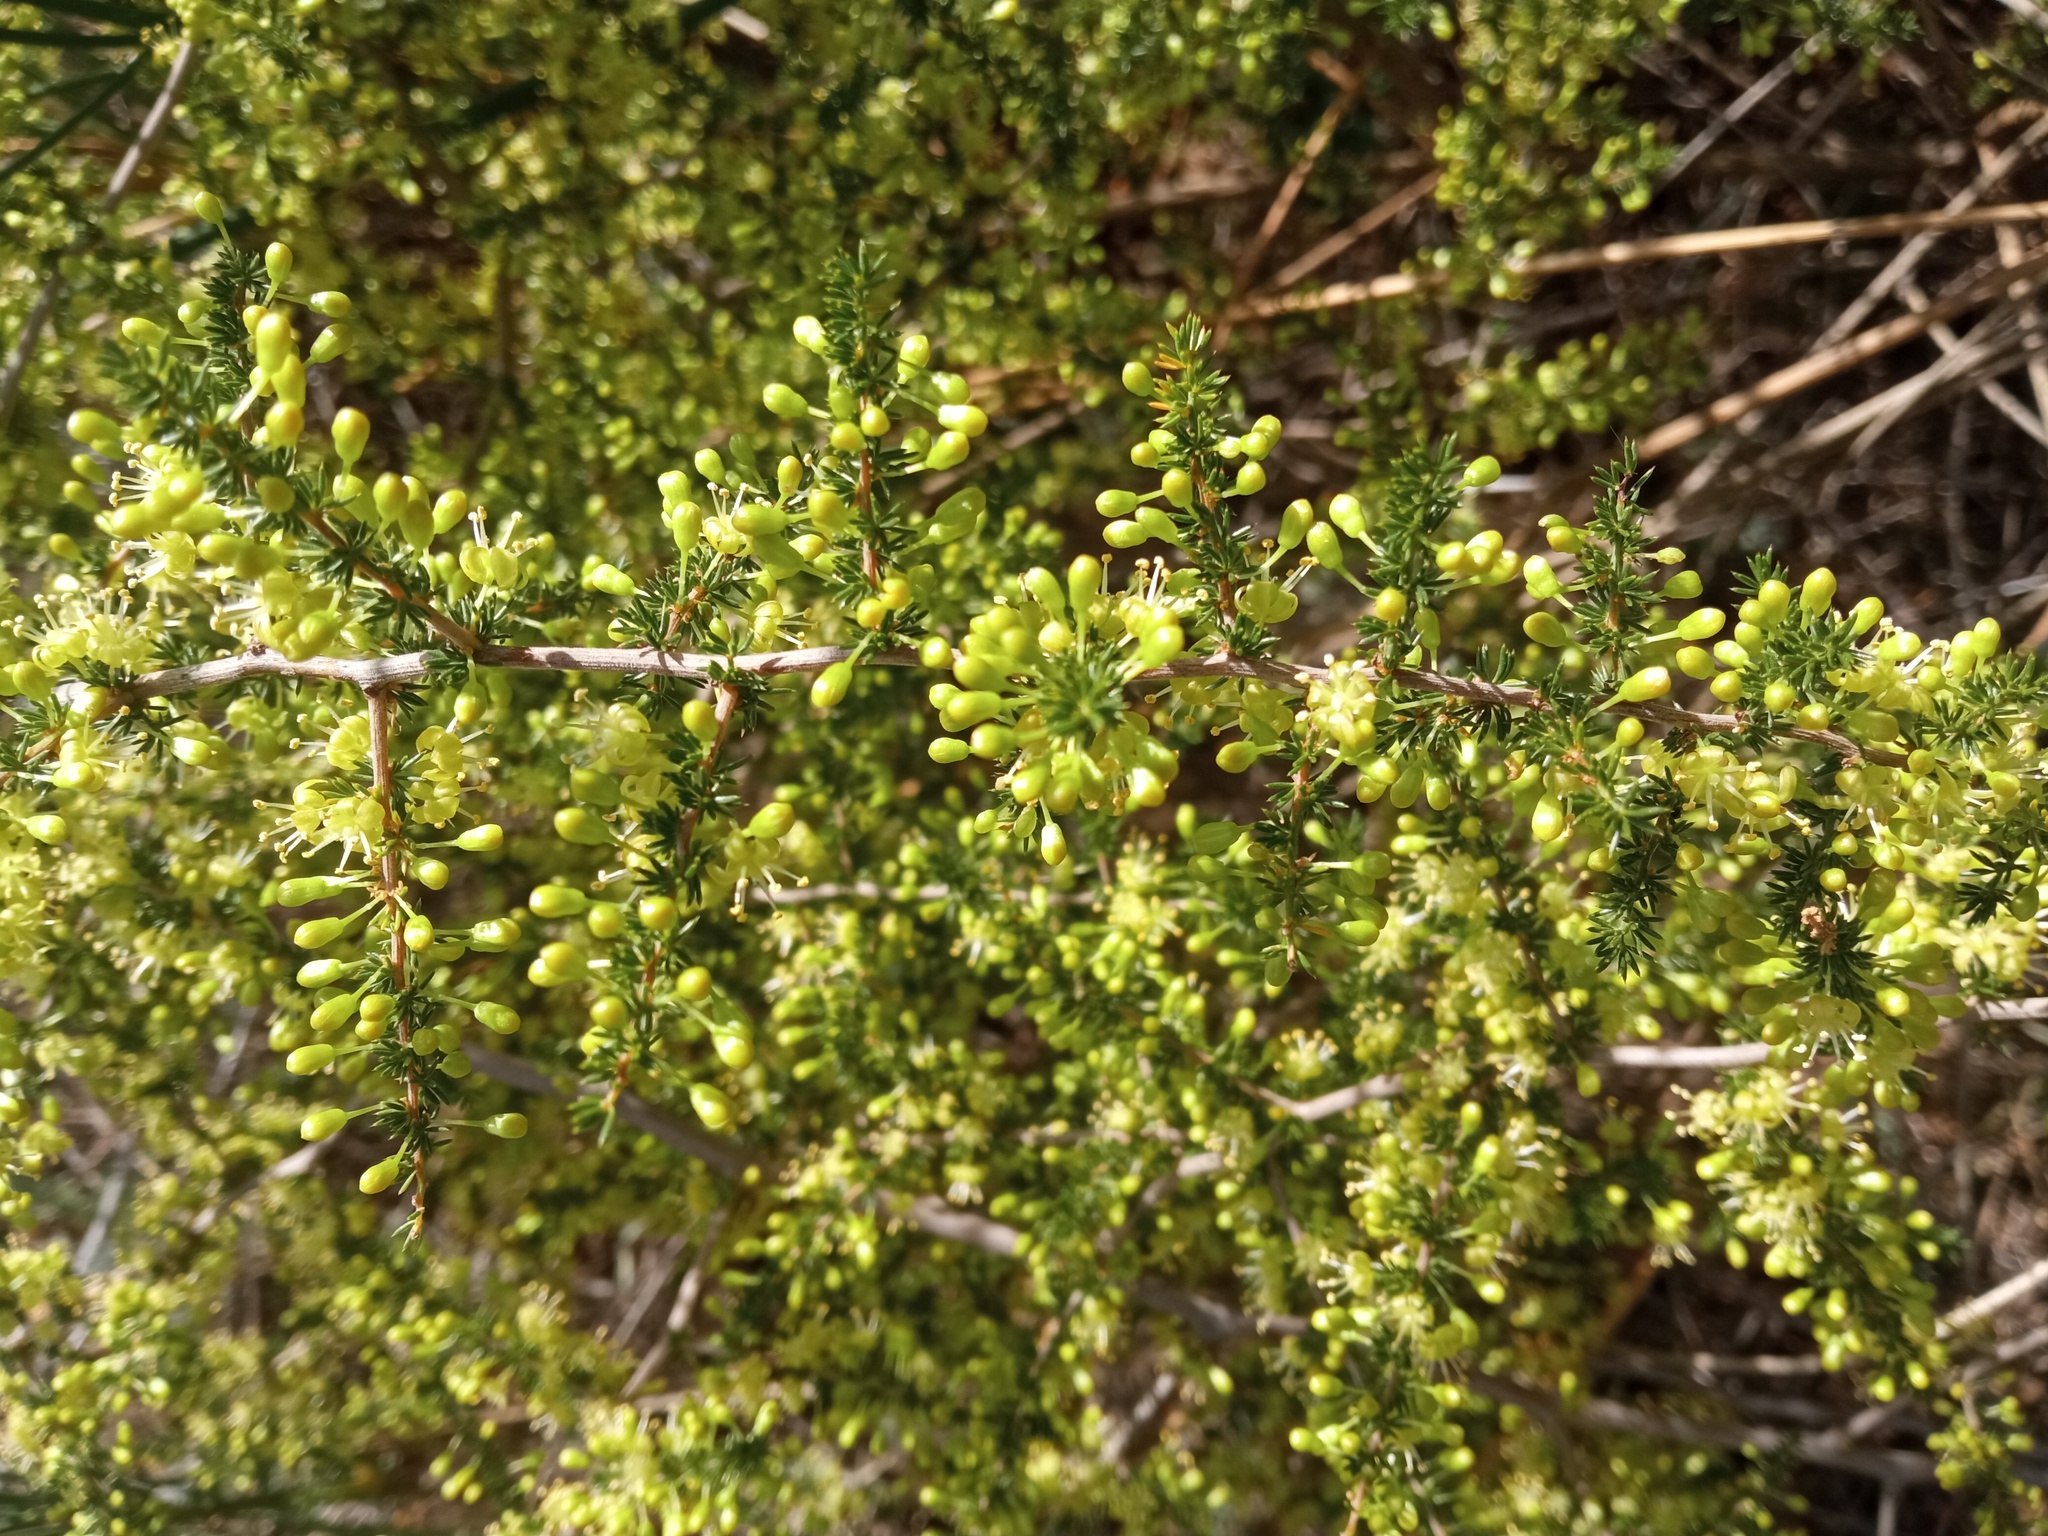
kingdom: Plantae
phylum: Tracheophyta
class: Liliopsida
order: Asparagales
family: Asparagaceae
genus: Asparagus
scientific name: Asparagus acutifolius
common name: Wild asparagus
